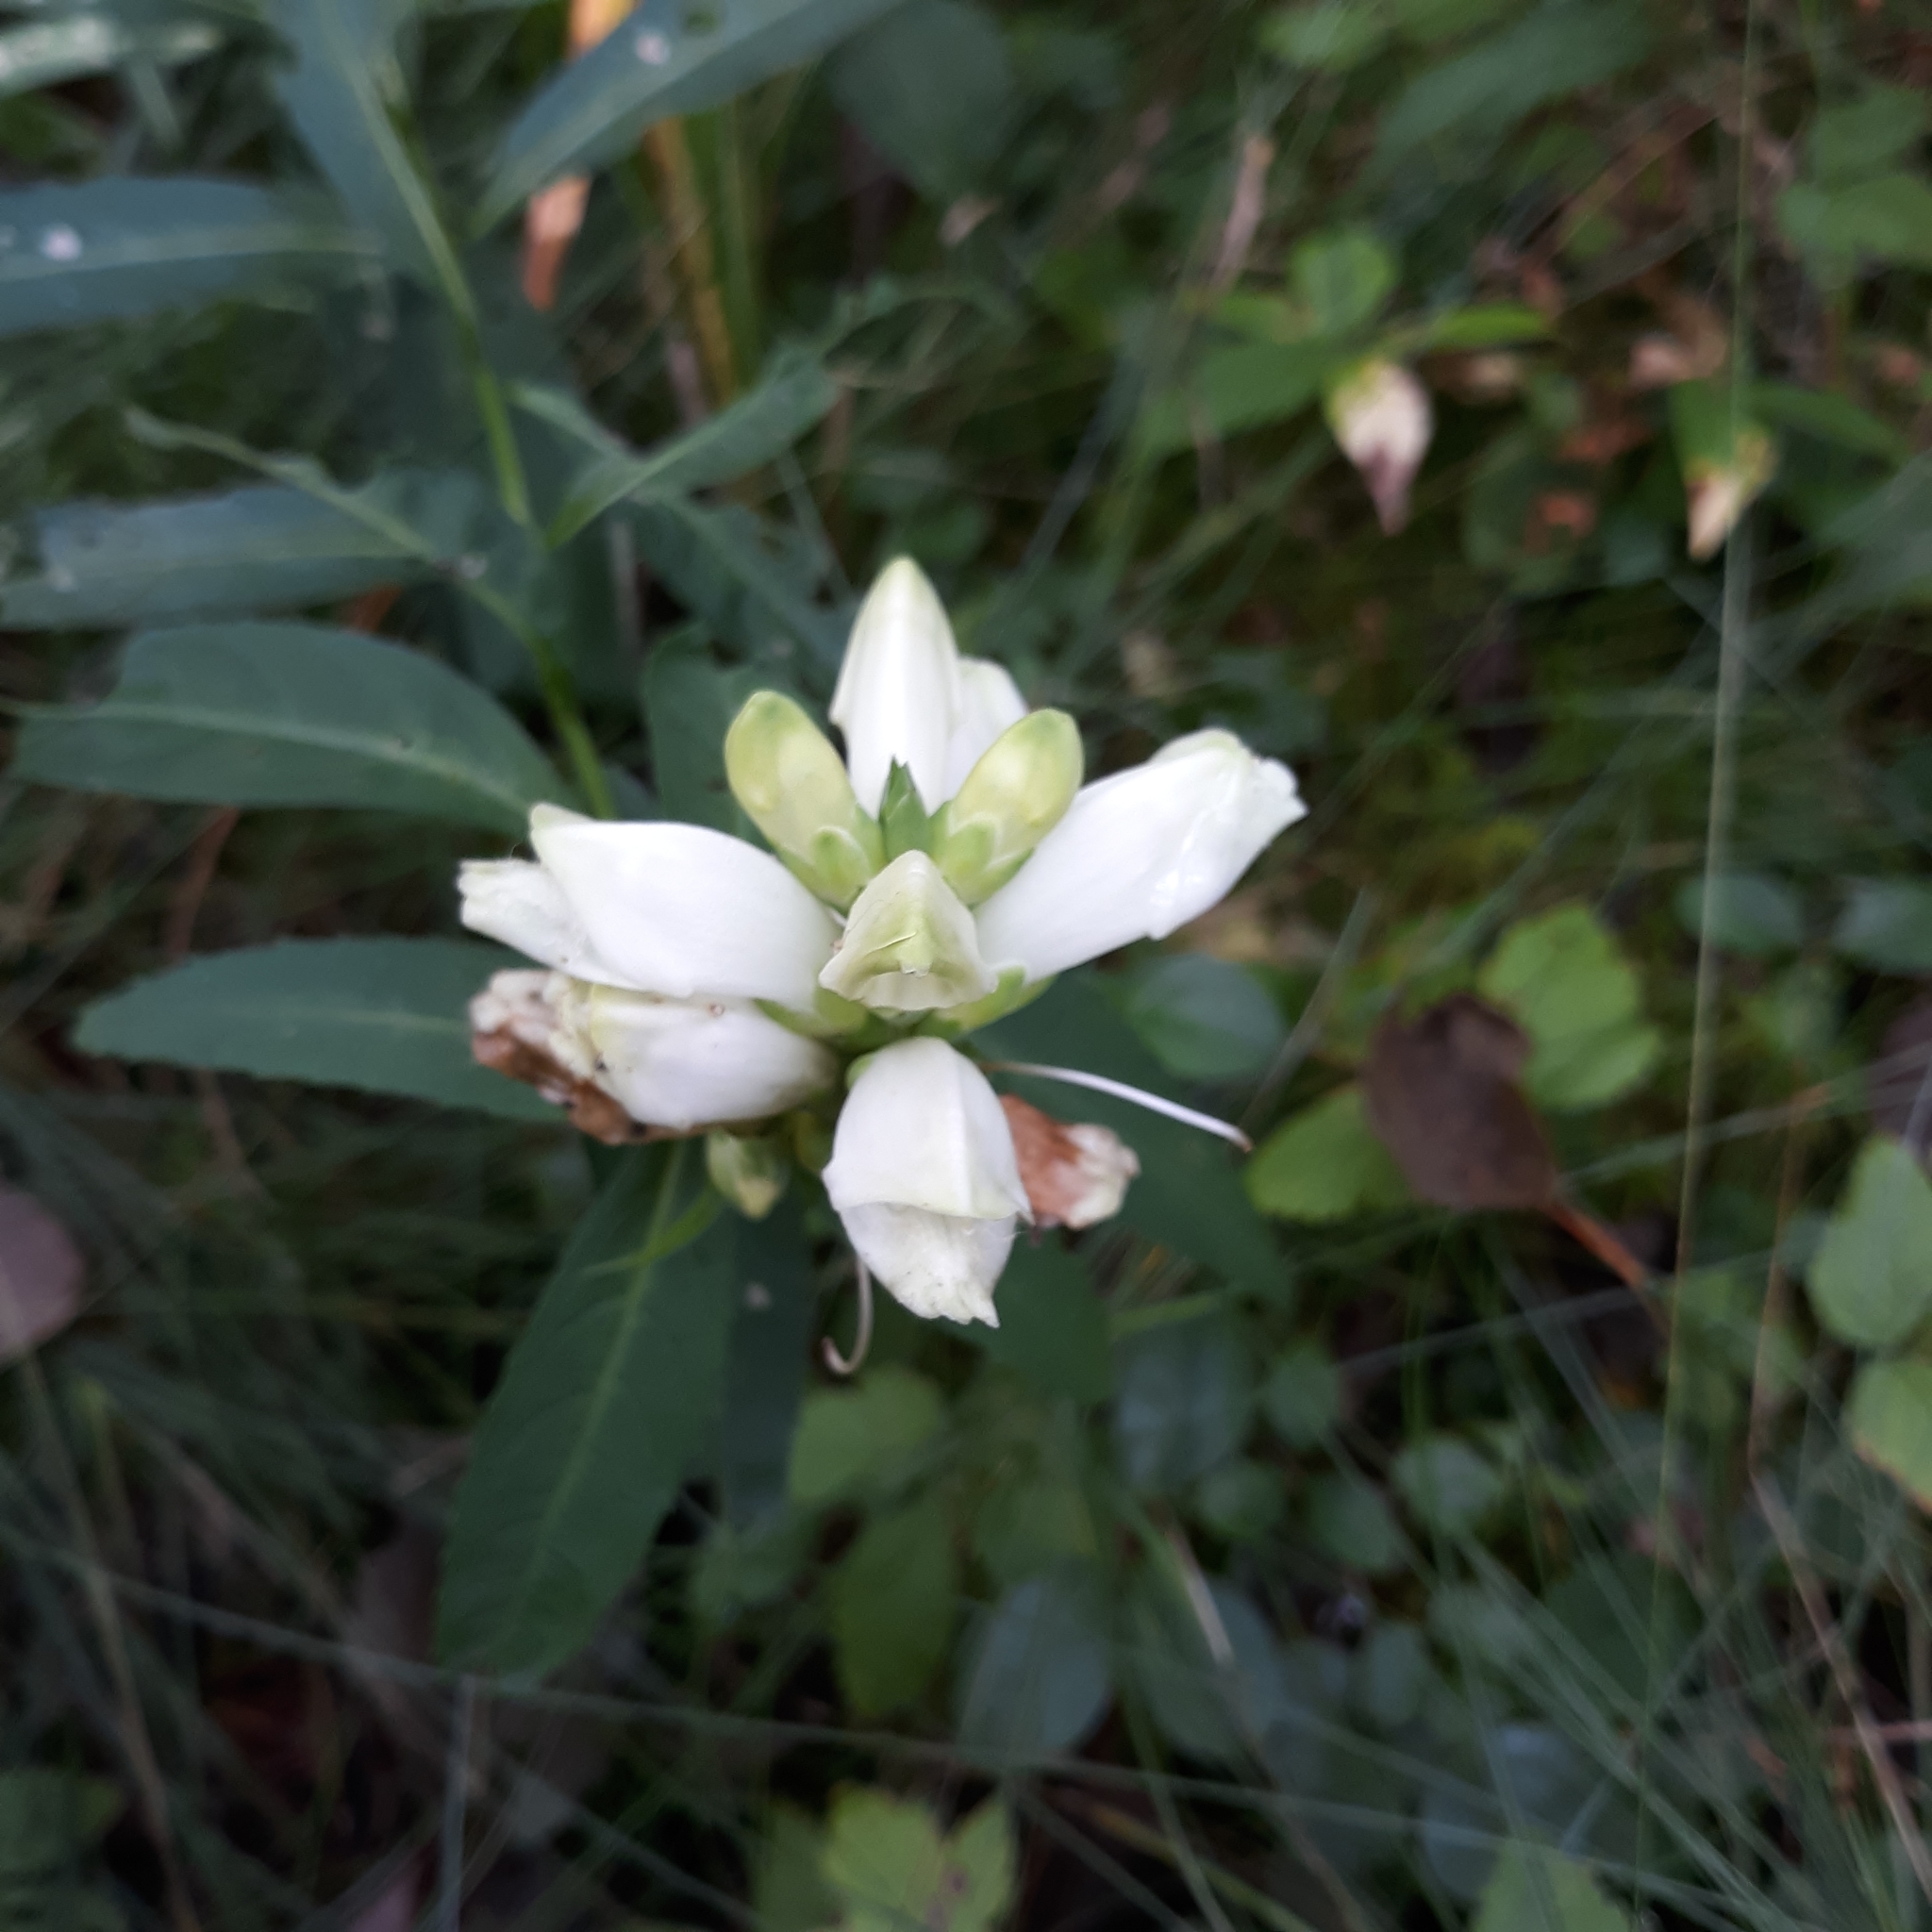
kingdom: Plantae
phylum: Tracheophyta
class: Magnoliopsida
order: Lamiales
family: Plantaginaceae
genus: Chelone
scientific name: Chelone glabra
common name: Snakehead
